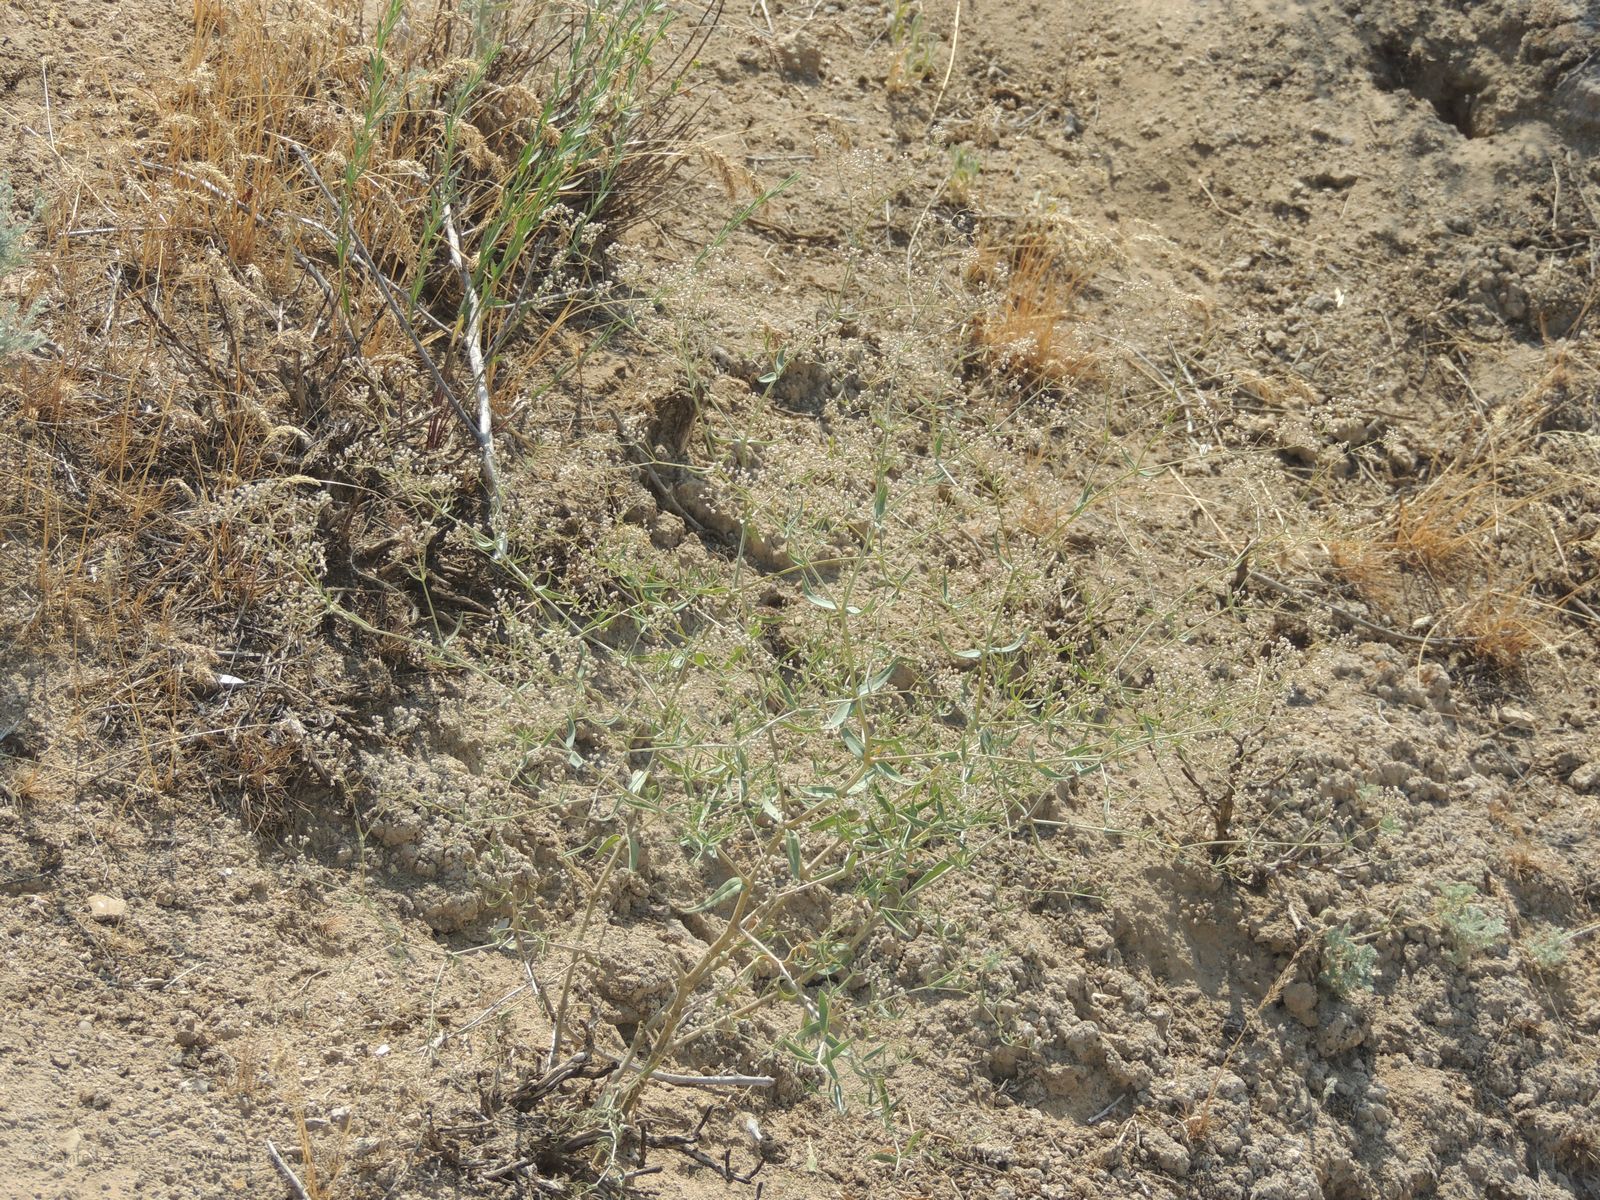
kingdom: Plantae
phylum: Tracheophyta
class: Magnoliopsida
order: Caryophyllales
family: Caryophyllaceae
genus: Gypsophila
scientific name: Gypsophila paniculata
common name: Baby's-breath
